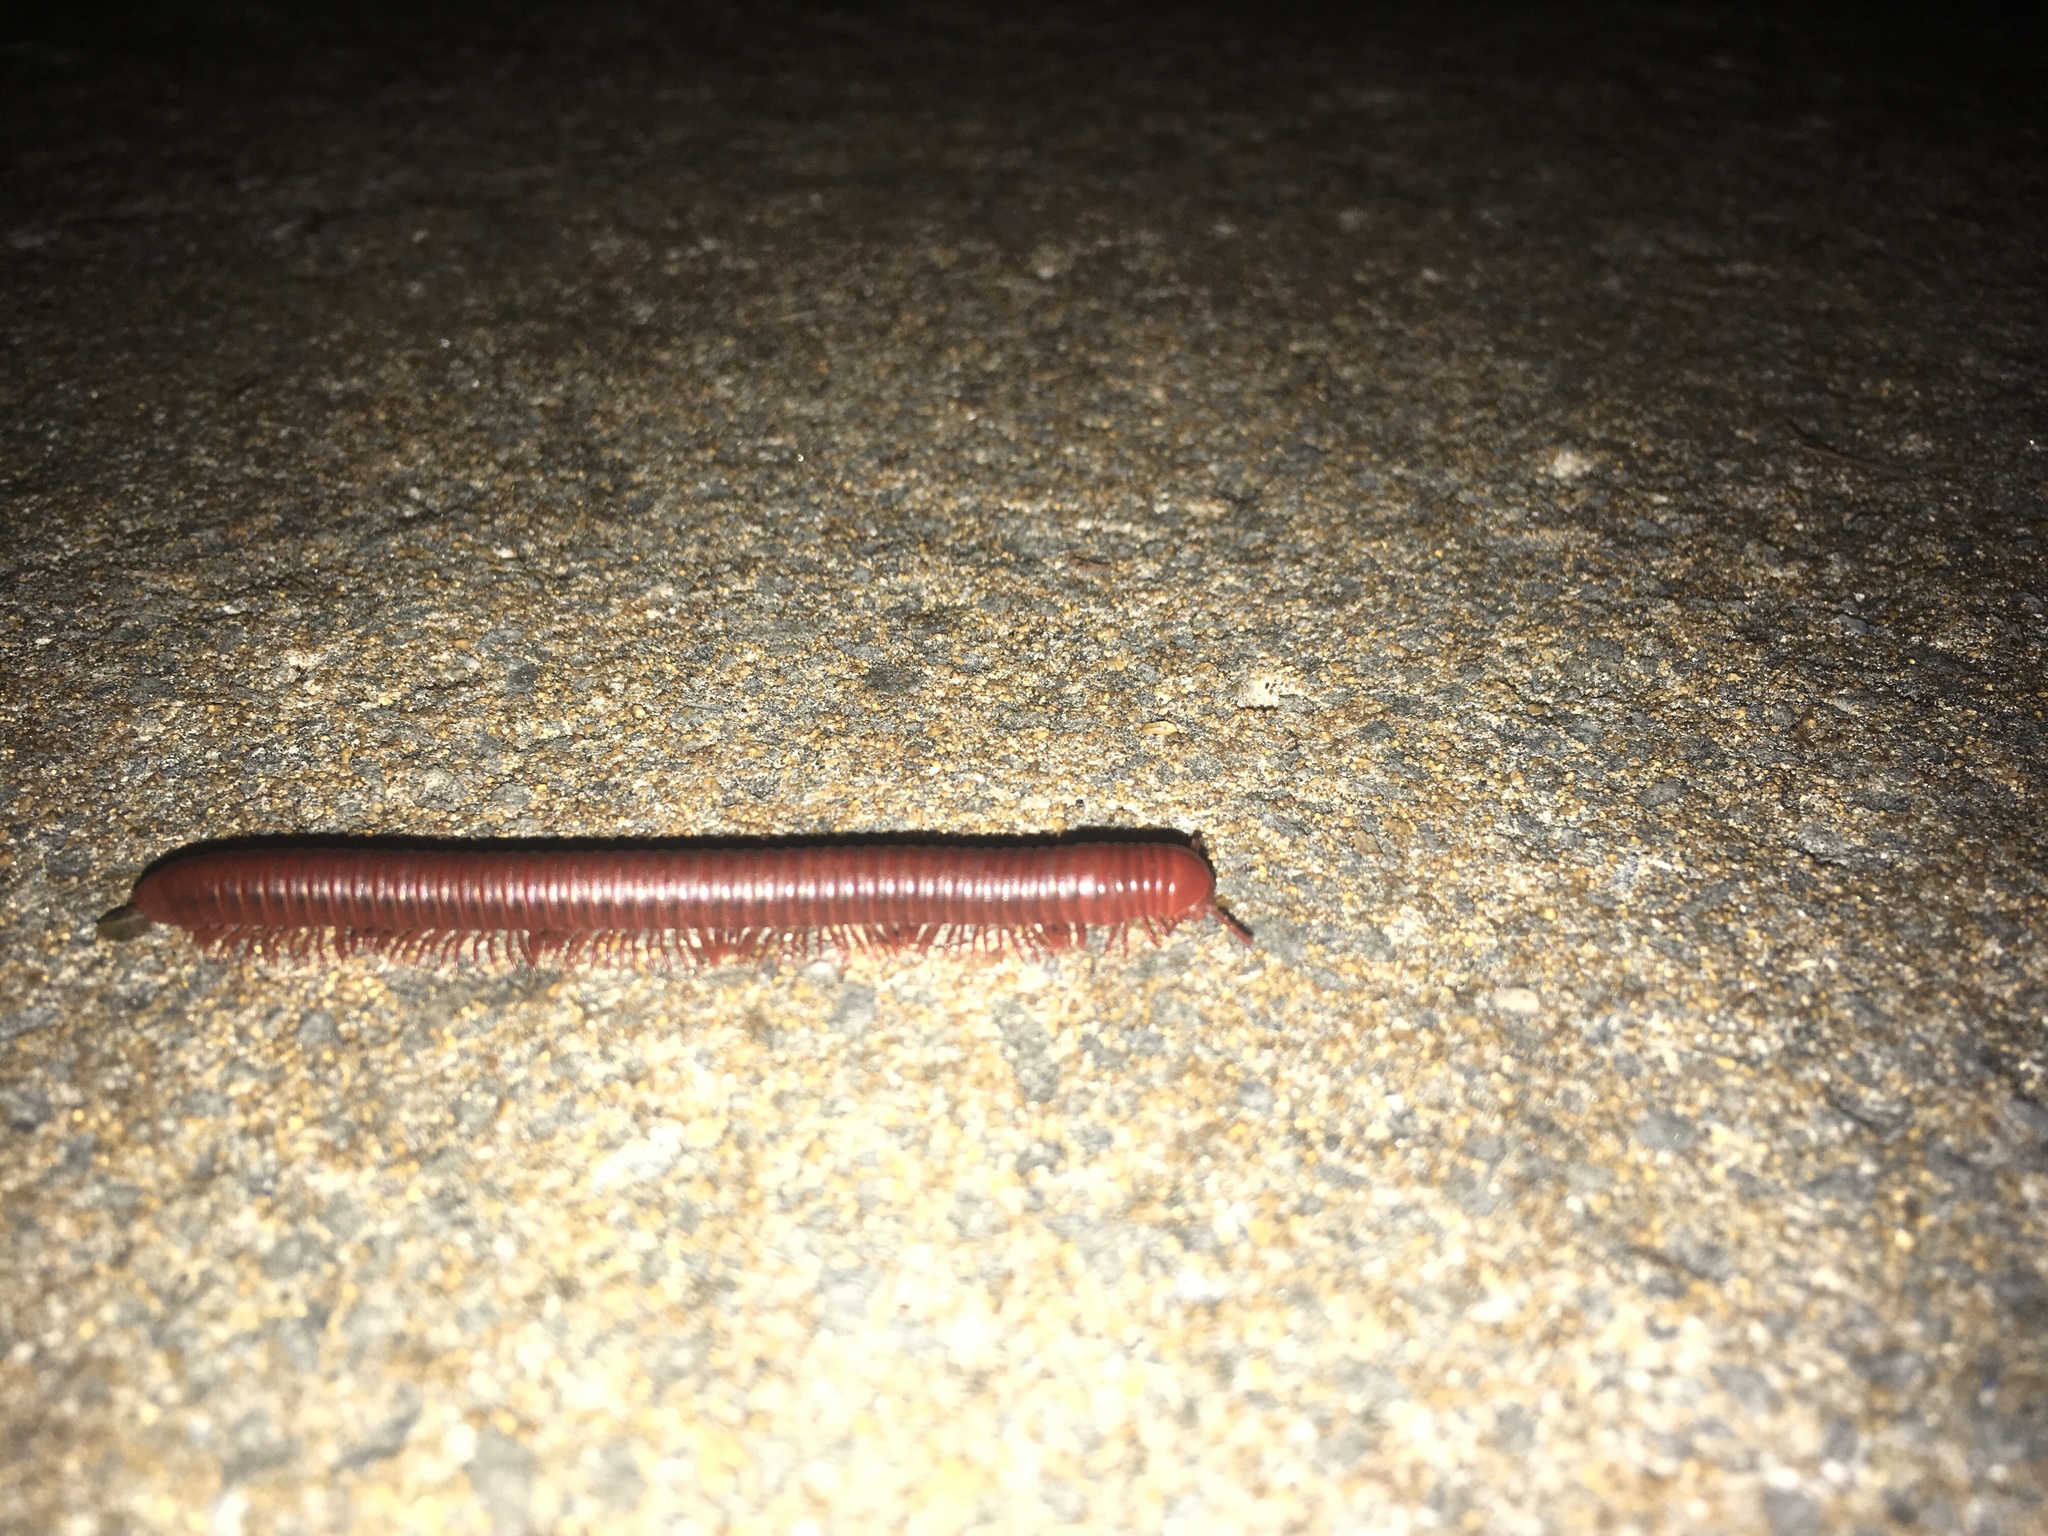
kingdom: Animalia
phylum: Arthropoda
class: Diplopoda
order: Spirobolida
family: Pachybolidae
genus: Trigoniulus
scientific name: Trigoniulus corallinus
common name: Millipede
